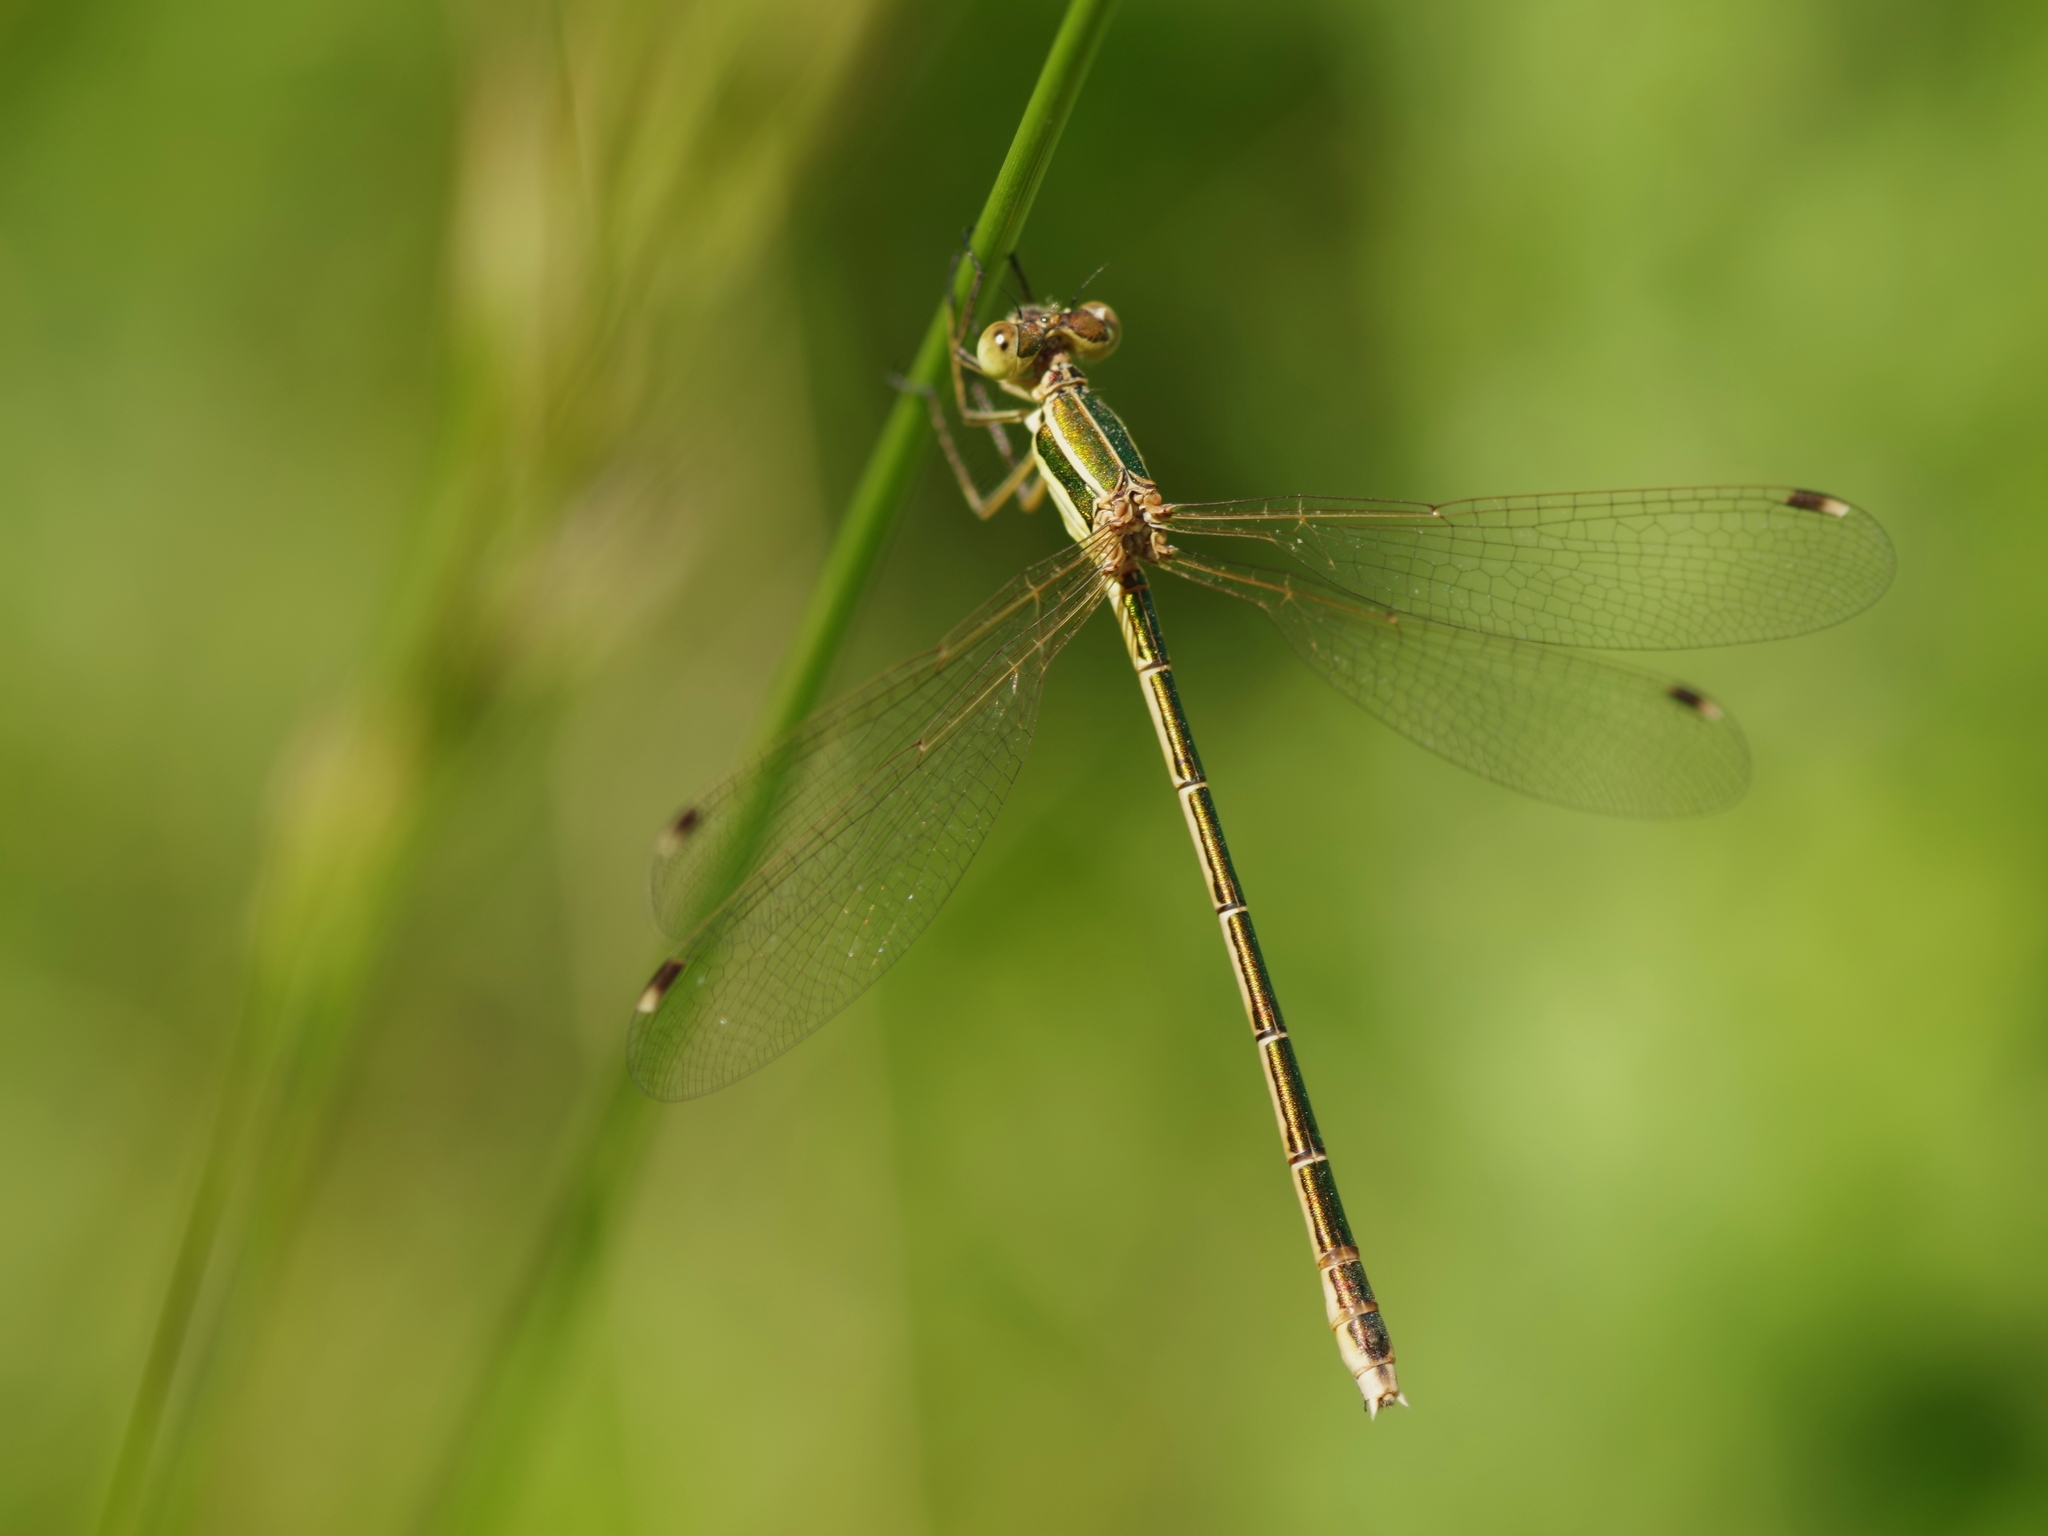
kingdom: Animalia
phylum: Arthropoda
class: Insecta
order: Odonata
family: Lestidae
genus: Lestes
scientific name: Lestes barbarus
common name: Migrant spreadwing
